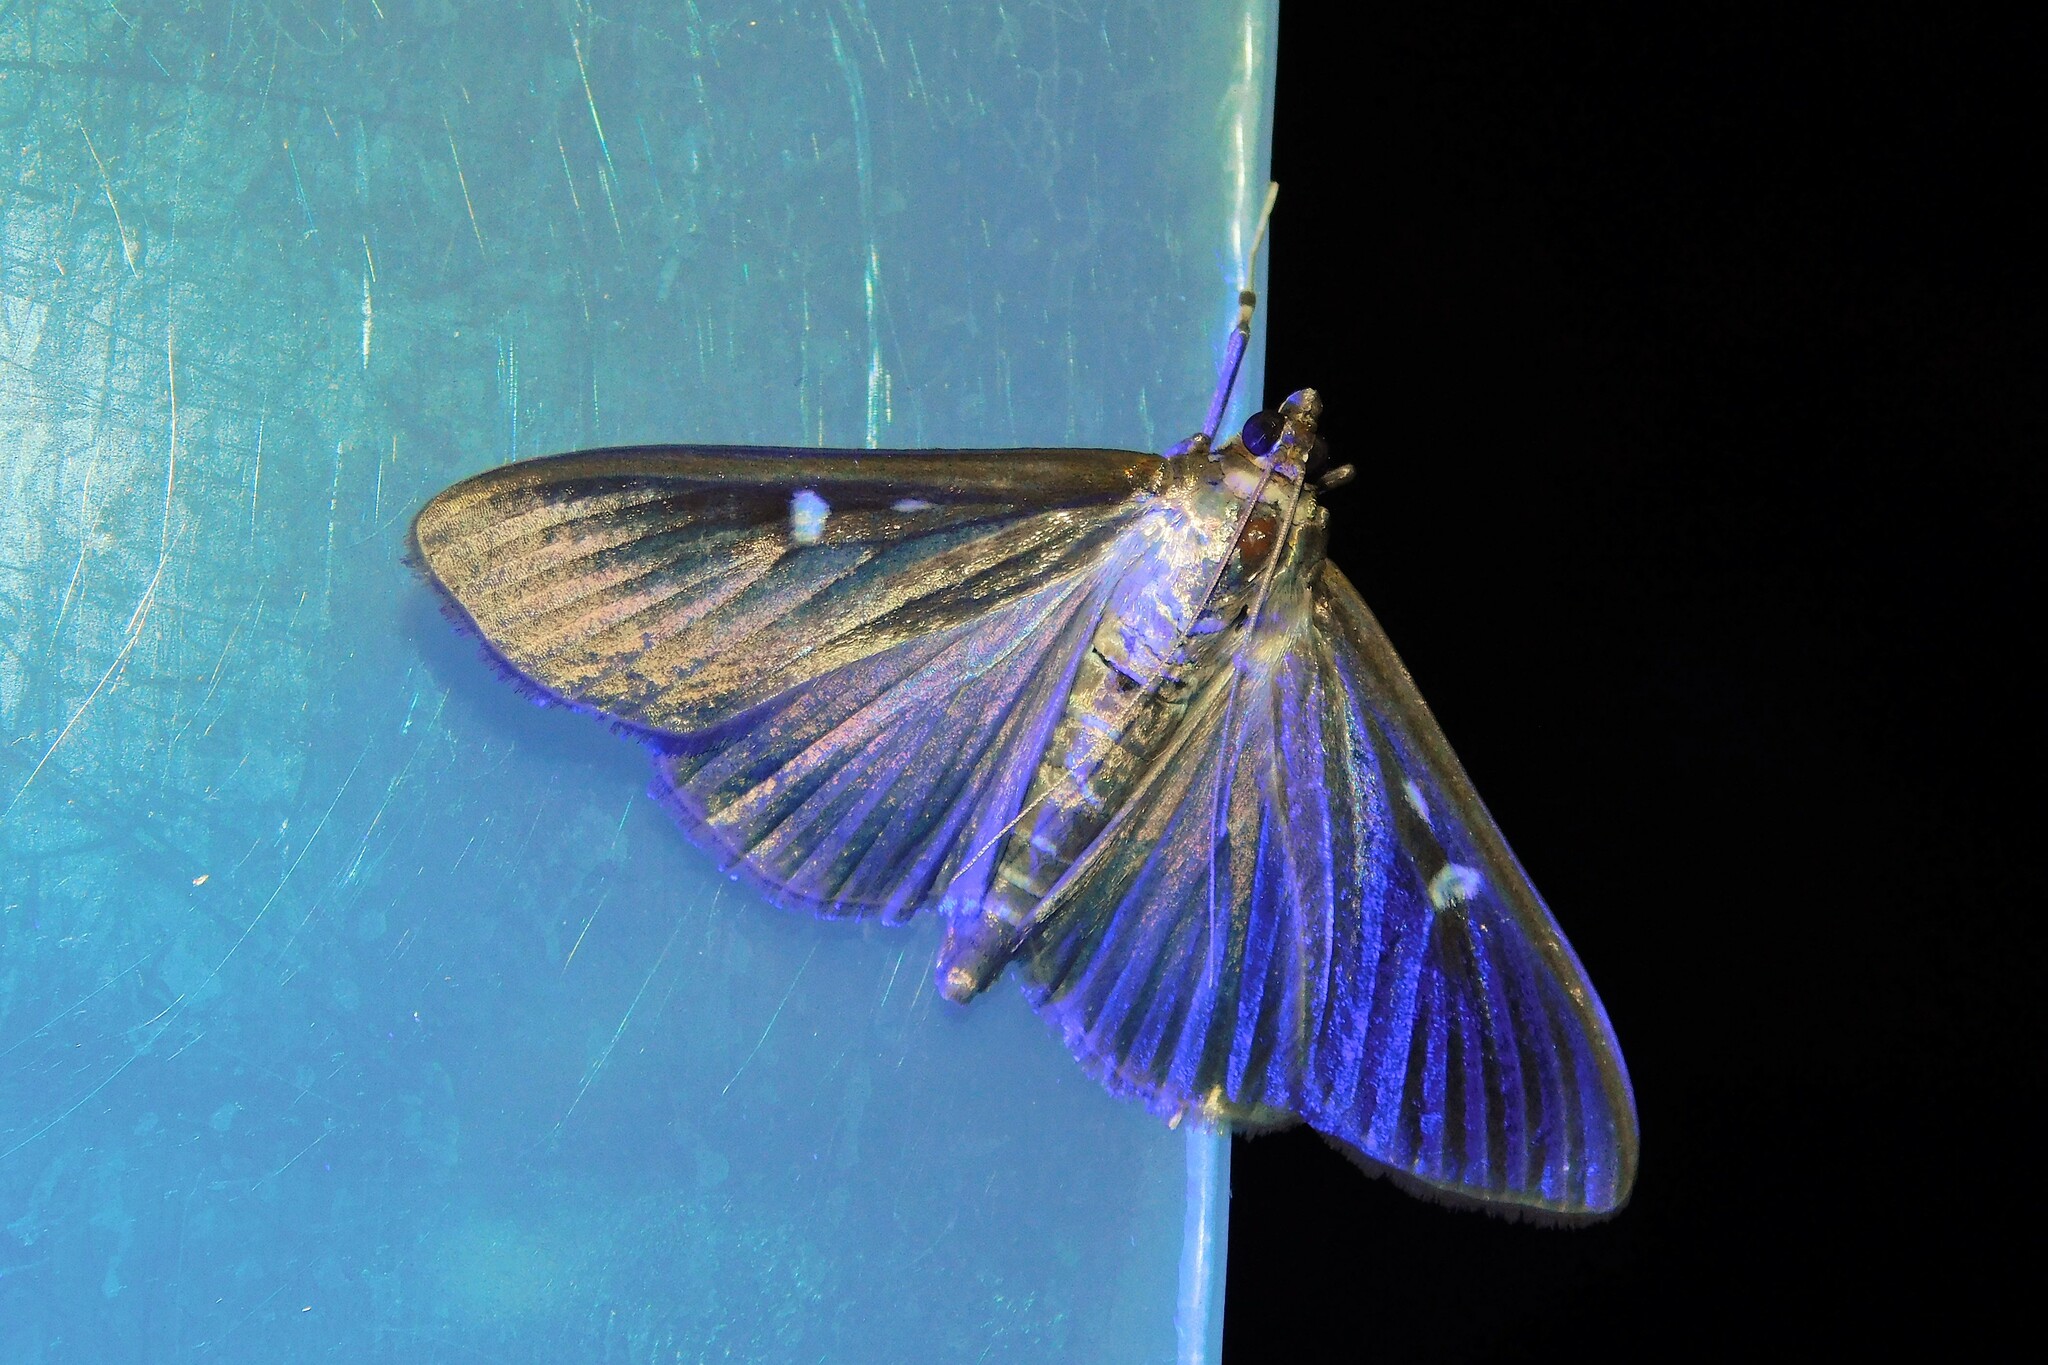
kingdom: Animalia
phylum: Arthropoda
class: Insecta
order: Lepidoptera
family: Crambidae
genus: Cydalima
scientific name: Cydalima perspectalis
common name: Box tree moth
